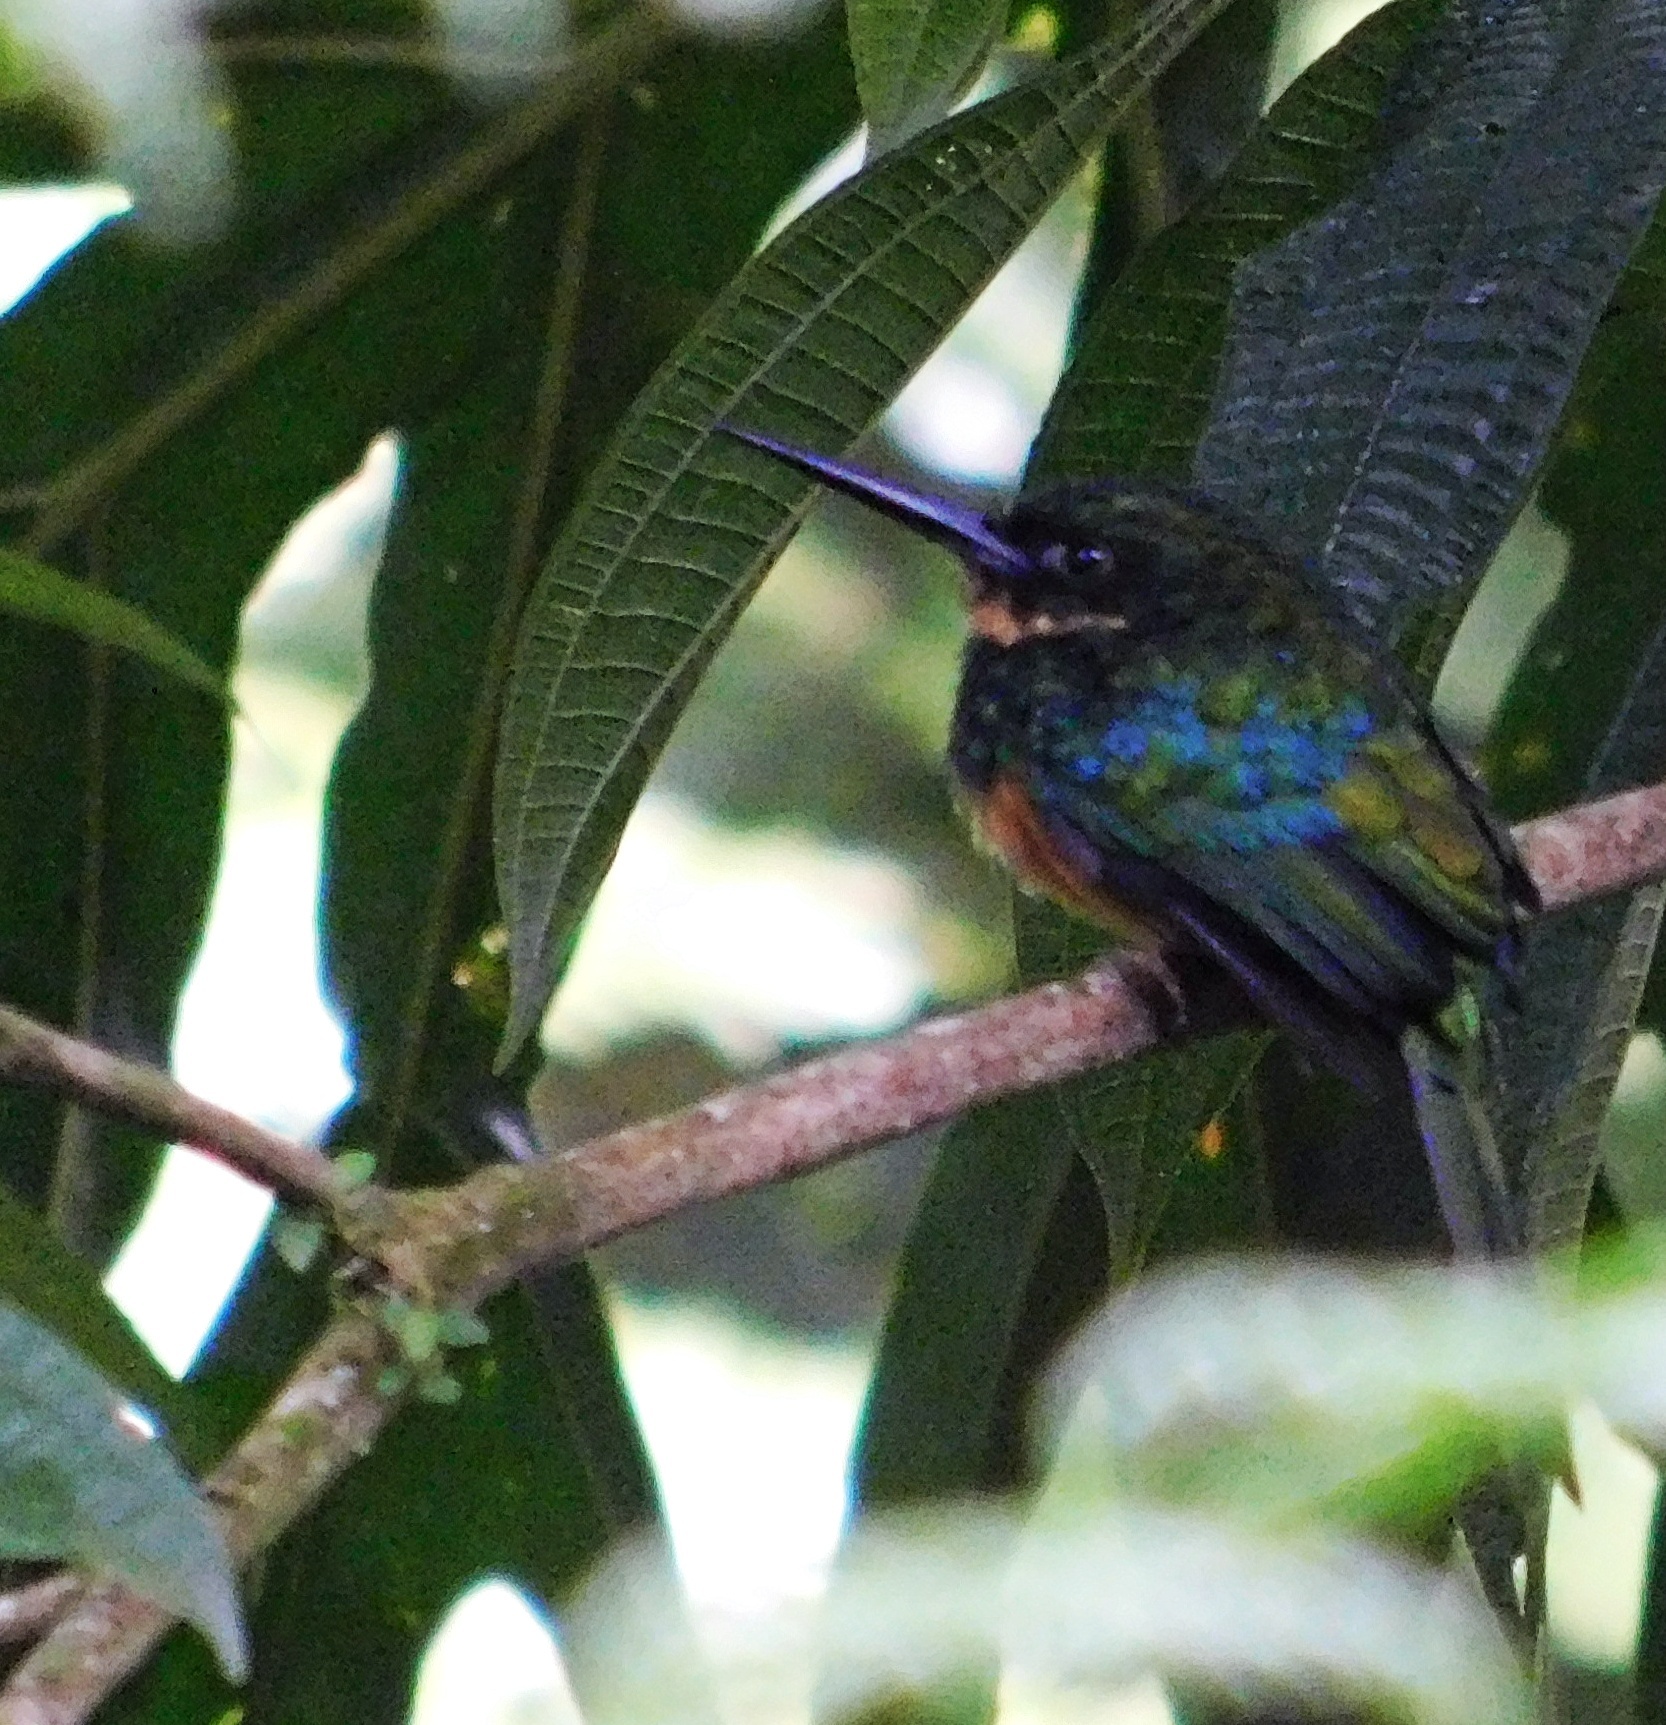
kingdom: Animalia
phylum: Chordata
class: Aves
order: Piciformes
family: Galbulidae
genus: Galbula
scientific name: Galbula ruficauda
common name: Rufous-tailed jacamar
